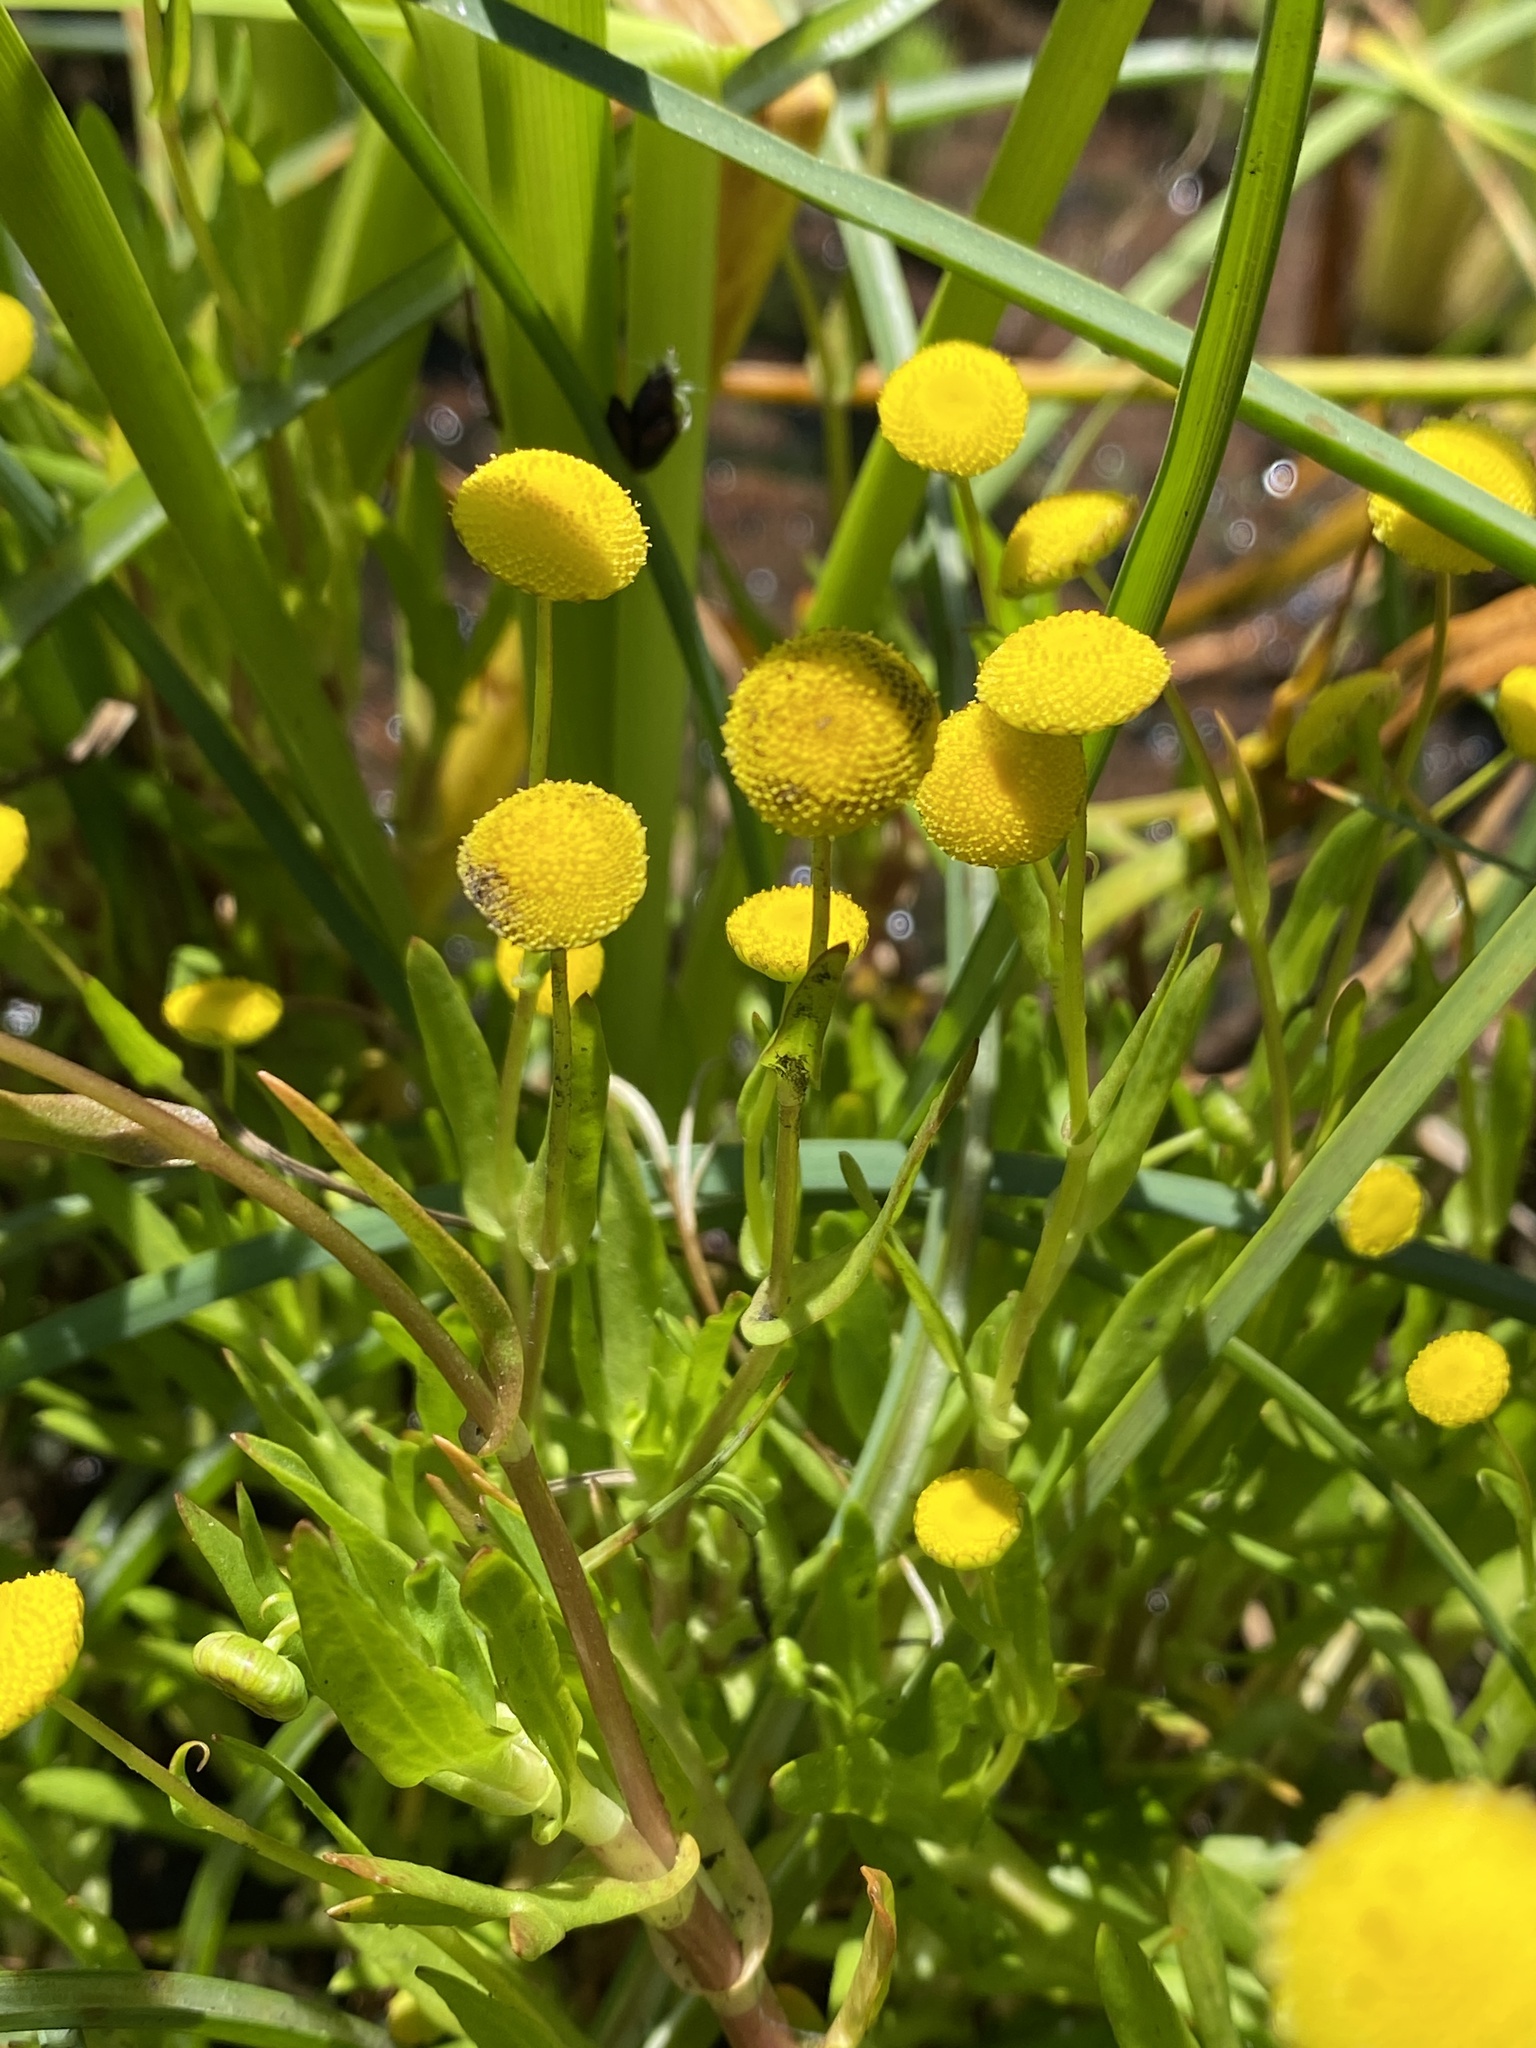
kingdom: Plantae
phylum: Tracheophyta
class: Magnoliopsida
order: Asterales
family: Asteraceae
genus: Cotula
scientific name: Cotula coronopifolia
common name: Buttonweed
